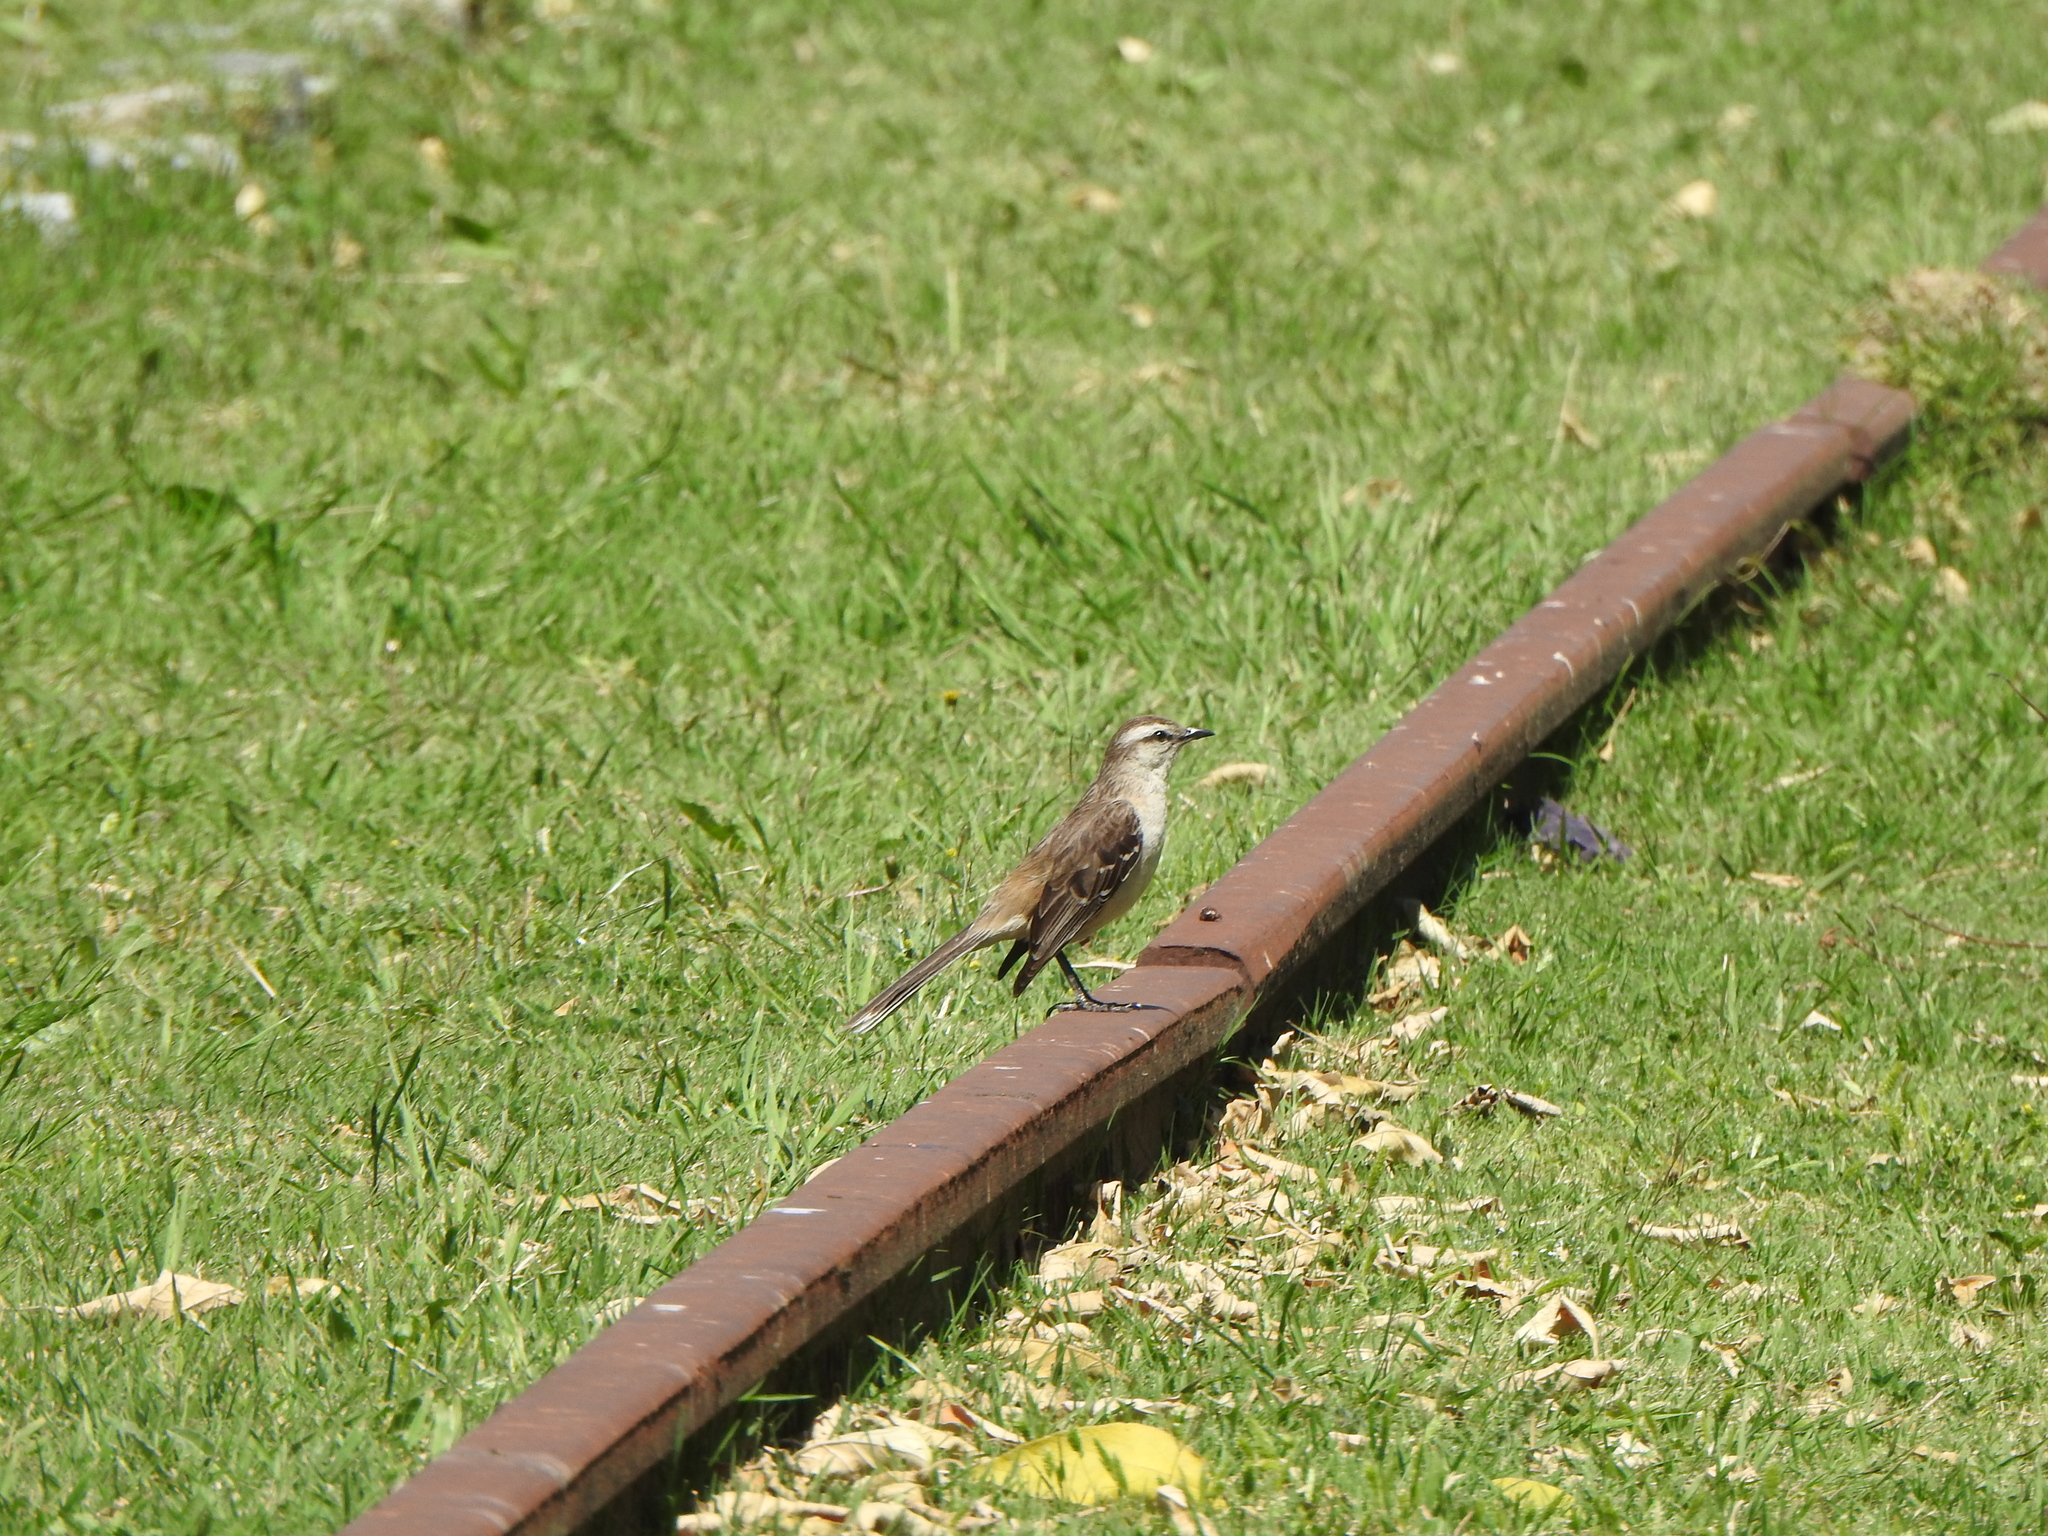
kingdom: Animalia
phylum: Chordata
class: Aves
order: Passeriformes
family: Mimidae
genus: Mimus
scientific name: Mimus saturninus
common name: Chalk-browed mockingbird
